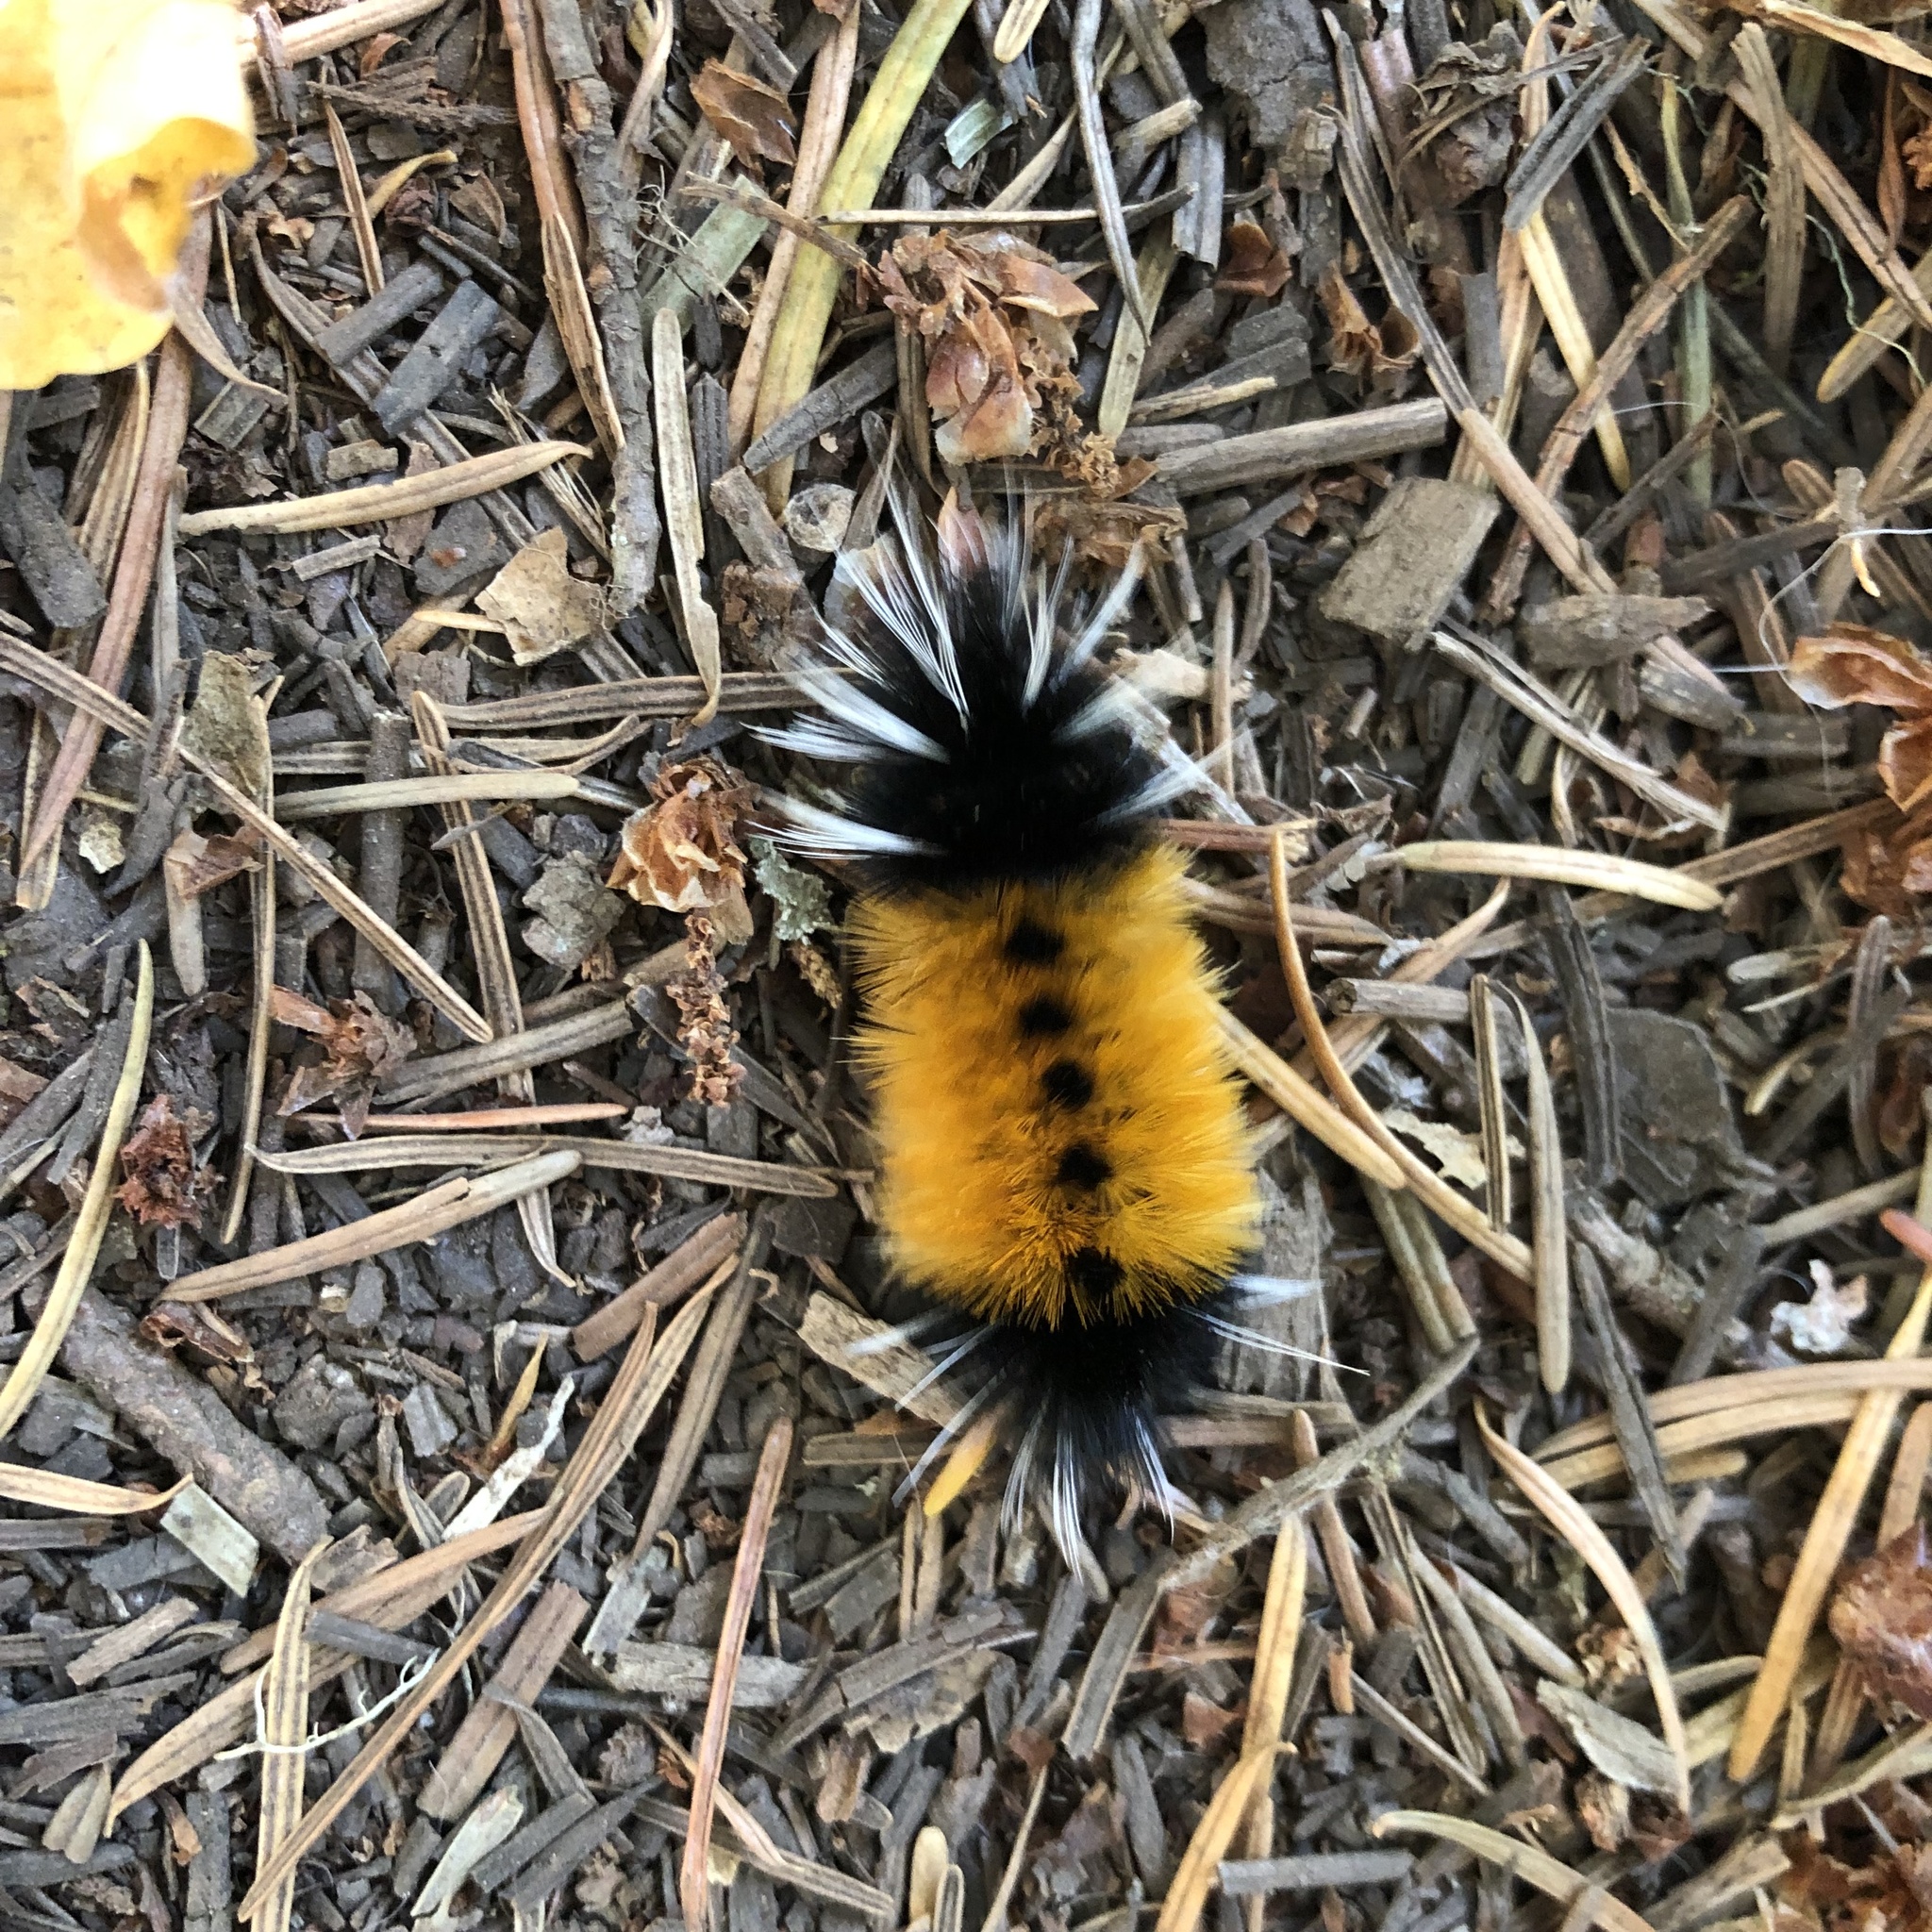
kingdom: Animalia
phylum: Arthropoda
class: Insecta
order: Lepidoptera
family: Erebidae
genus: Lophocampa
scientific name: Lophocampa maculata
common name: Spotted tussock moth
